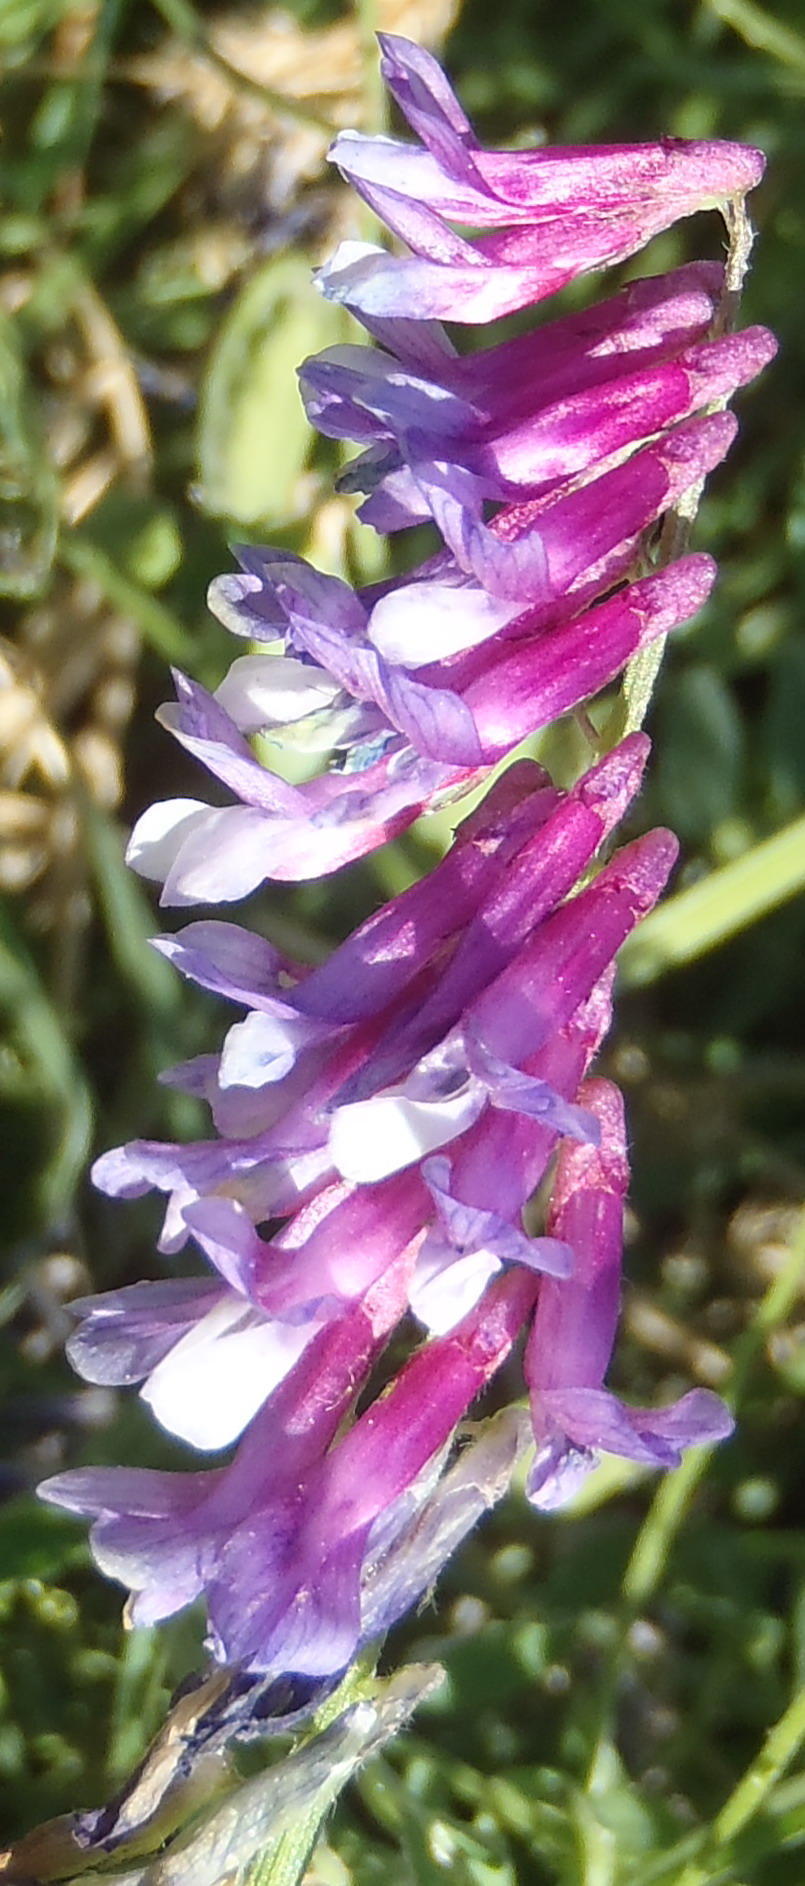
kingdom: Plantae
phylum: Tracheophyta
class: Magnoliopsida
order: Fabales
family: Fabaceae
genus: Vicia
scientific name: Vicia eriocarpa
